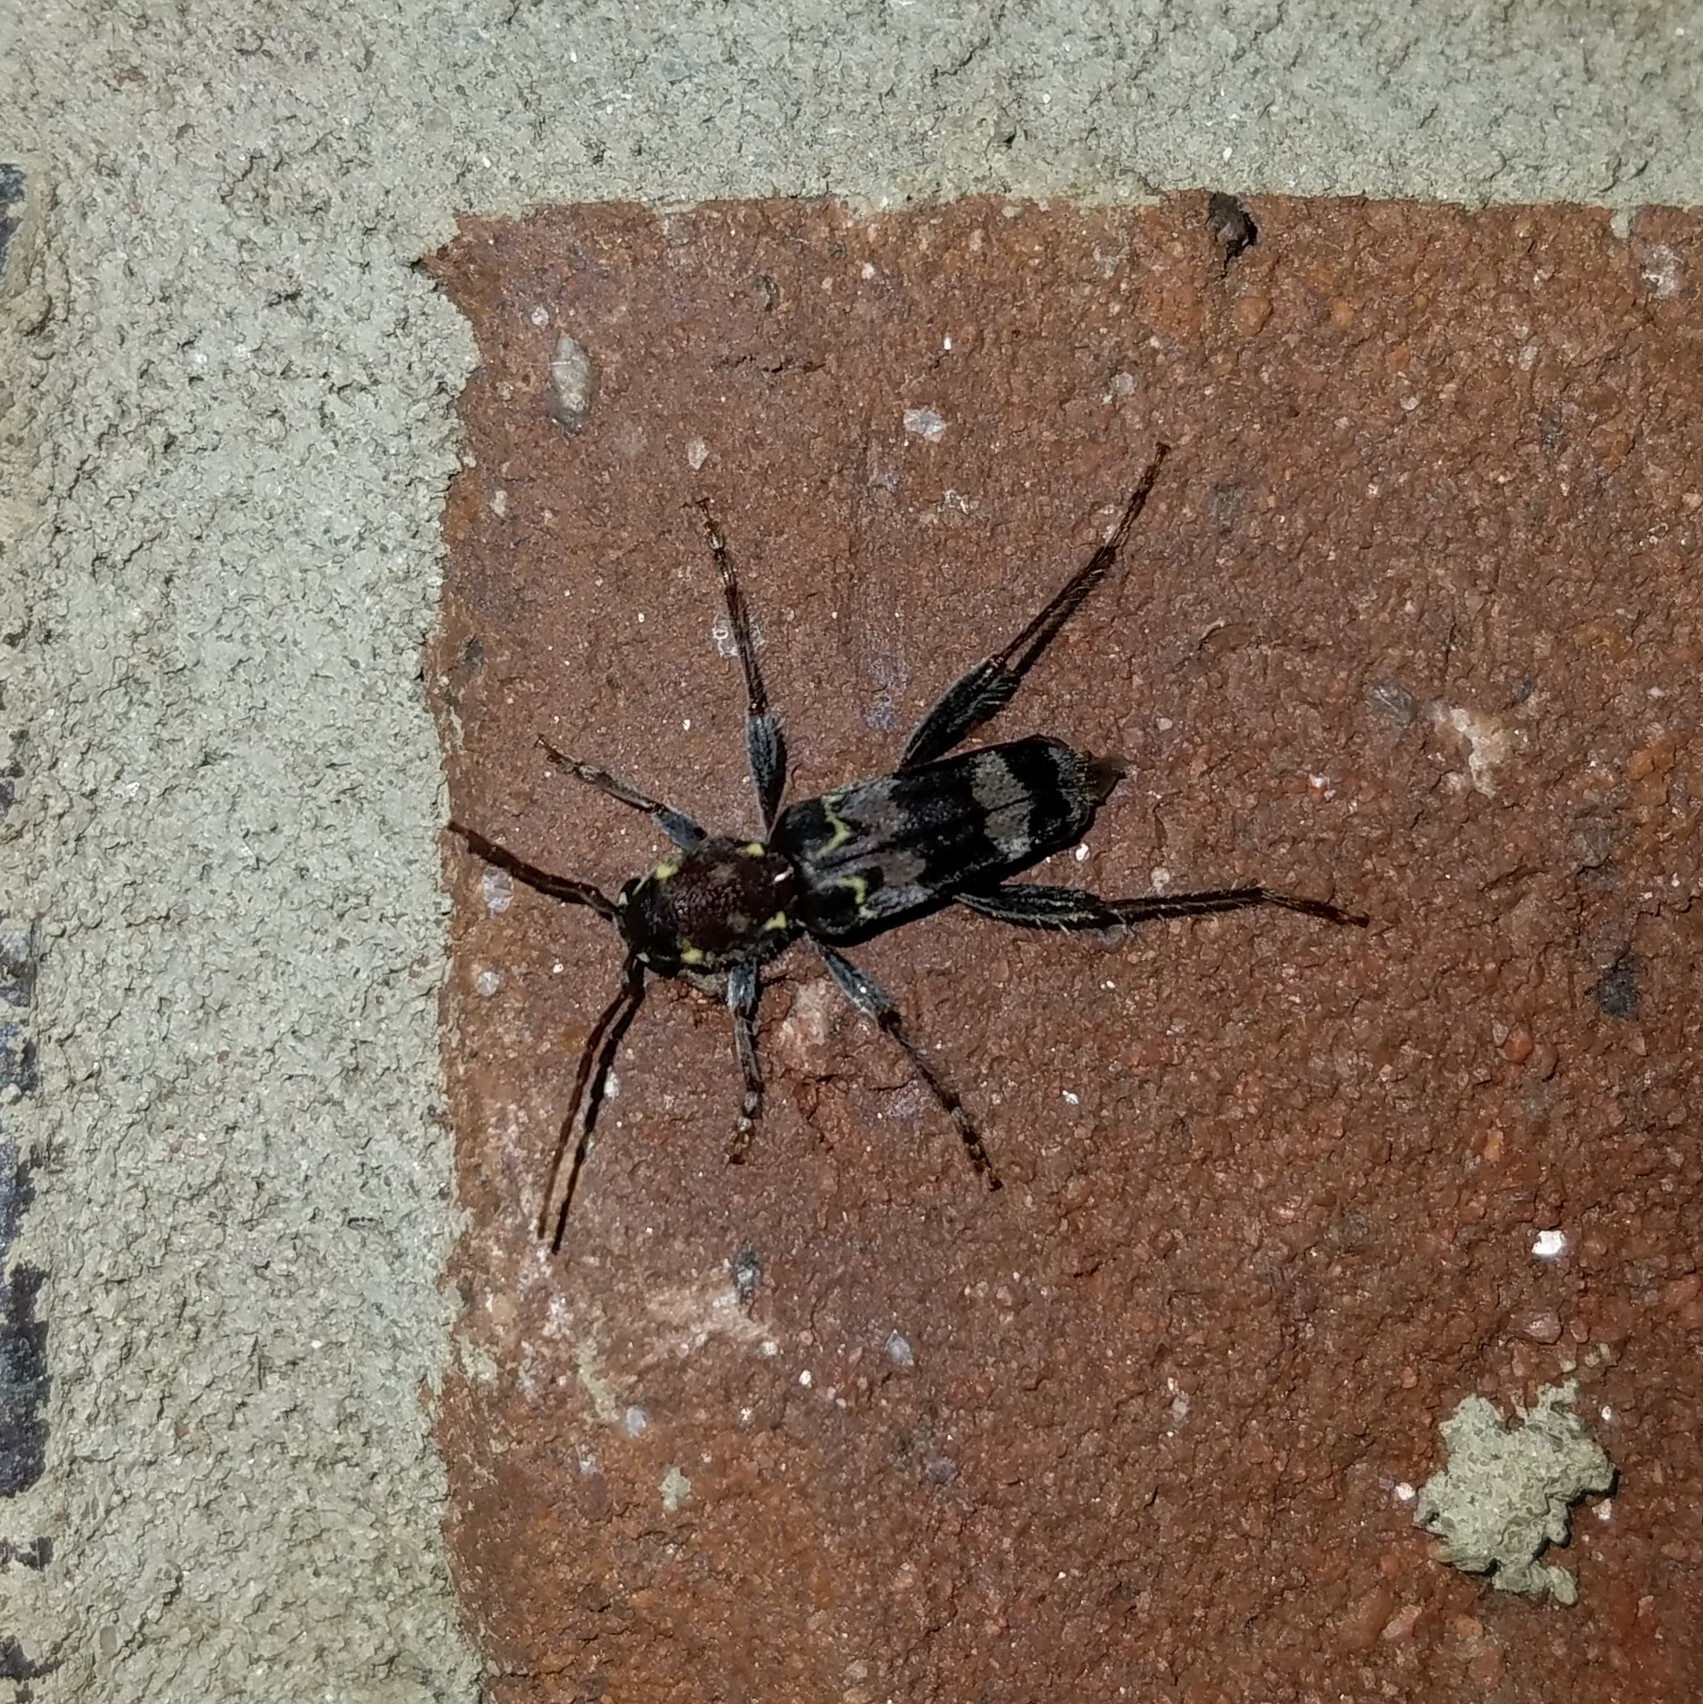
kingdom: Animalia
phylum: Arthropoda
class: Insecta
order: Coleoptera
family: Cerambycidae
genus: Xylotrechus
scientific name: Xylotrechus colonus
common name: Long-horned beetle
